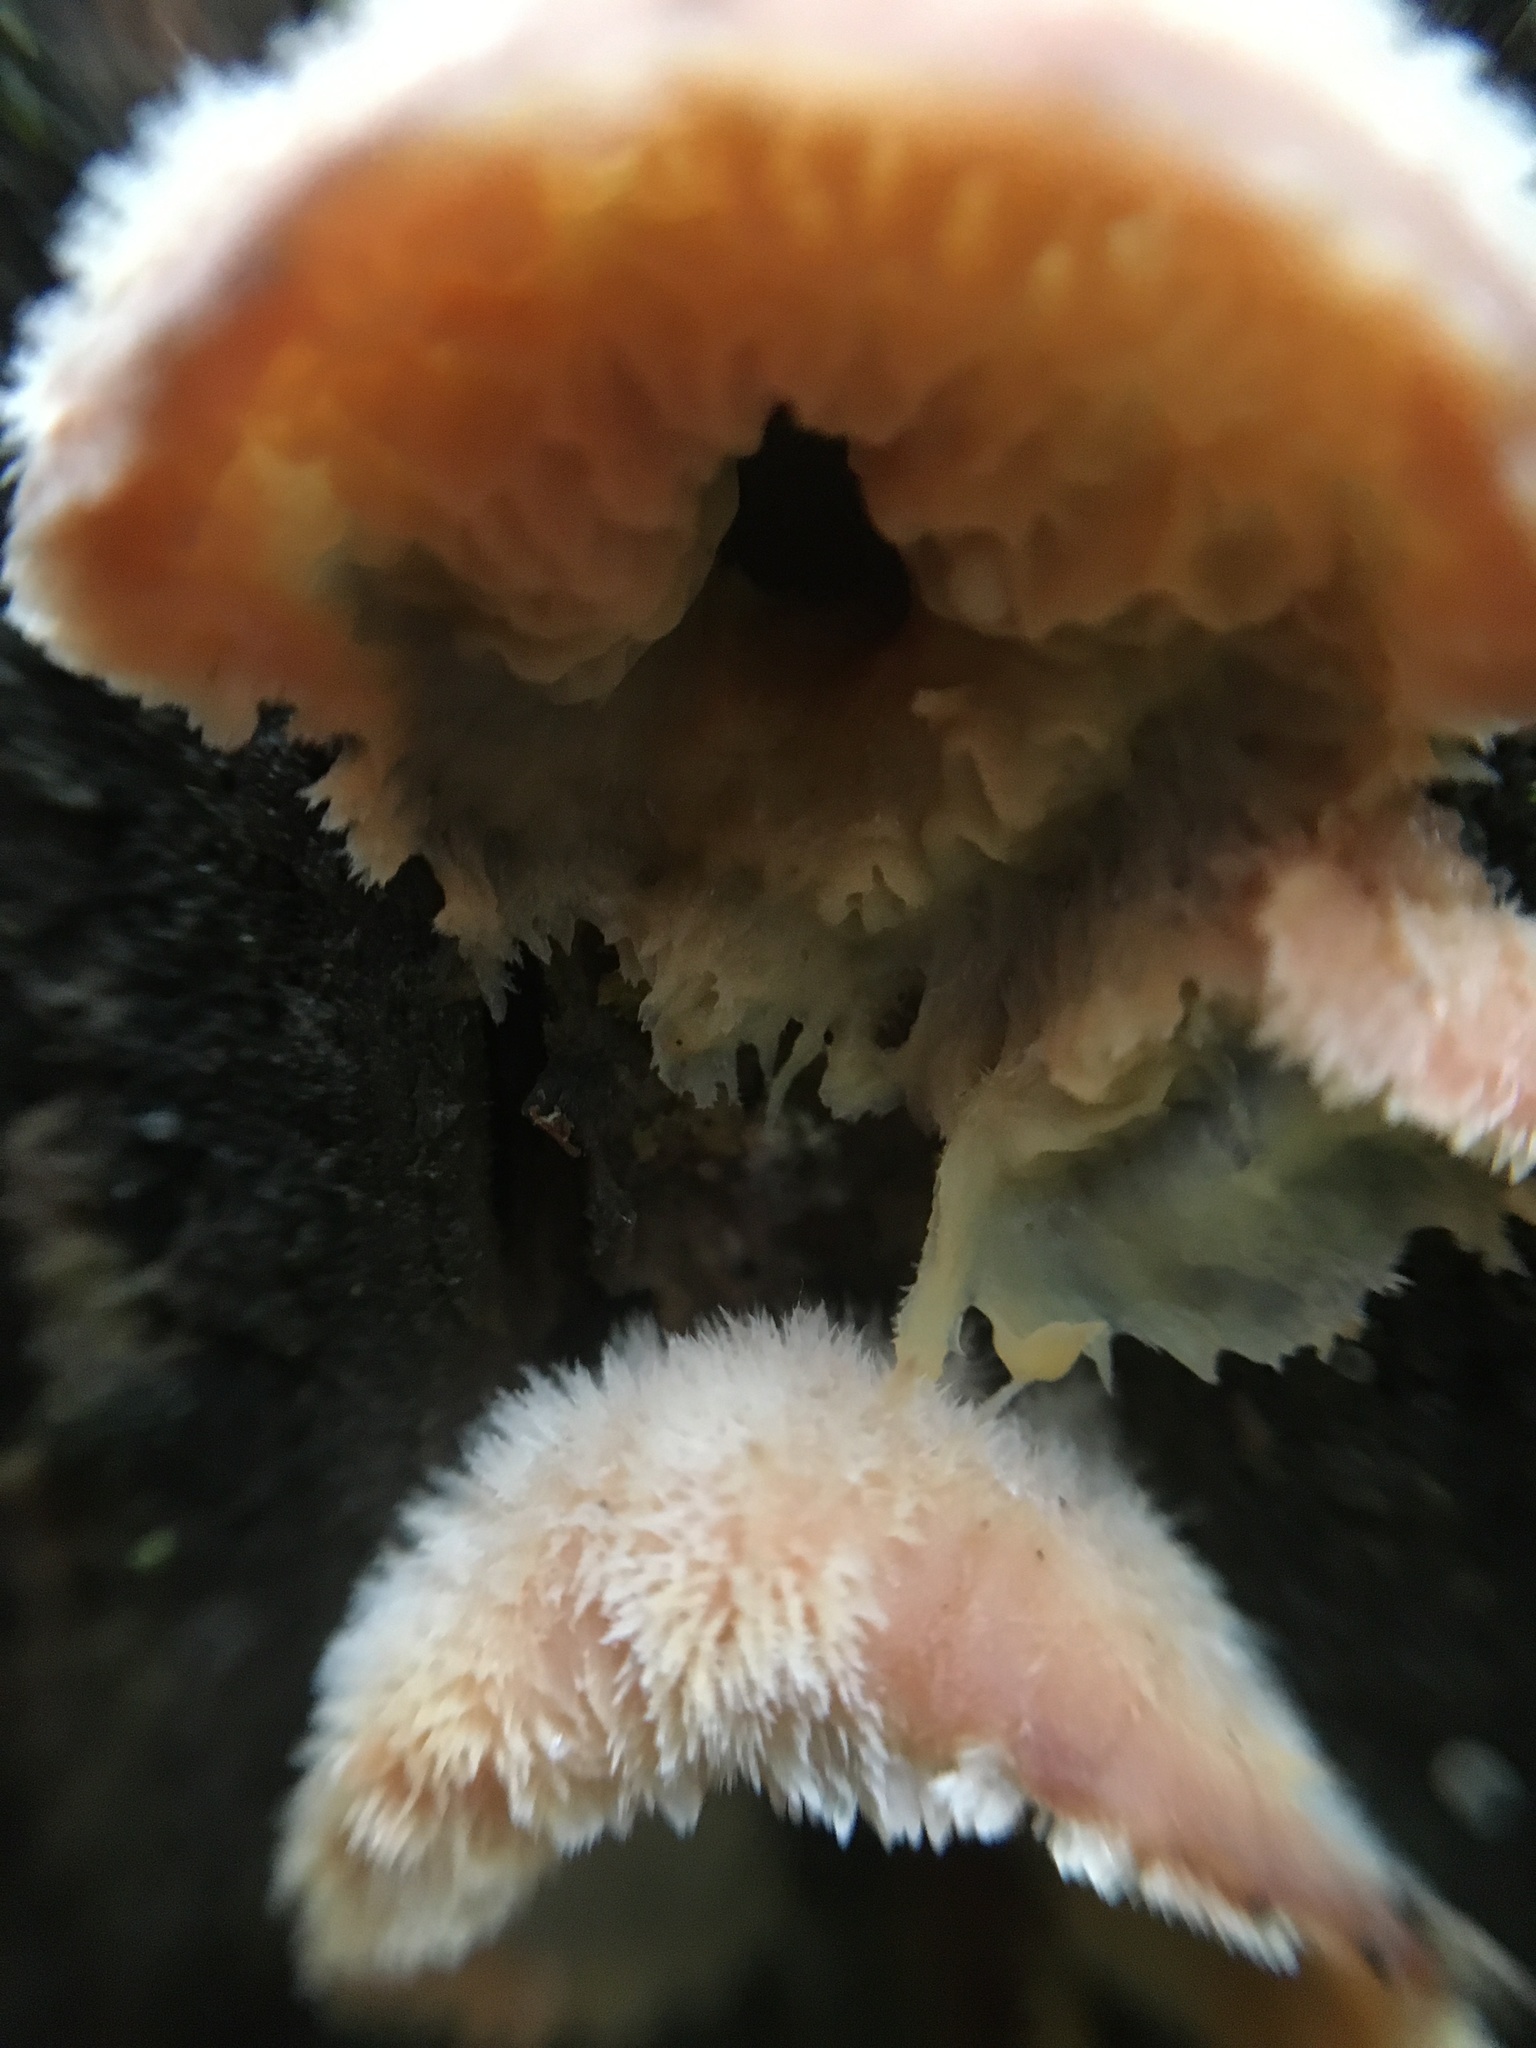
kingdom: Fungi
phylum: Basidiomycota
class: Agaricomycetes
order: Polyporales
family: Meruliaceae
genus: Phlebia
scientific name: Phlebia tremellosa
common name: Jelly rot
